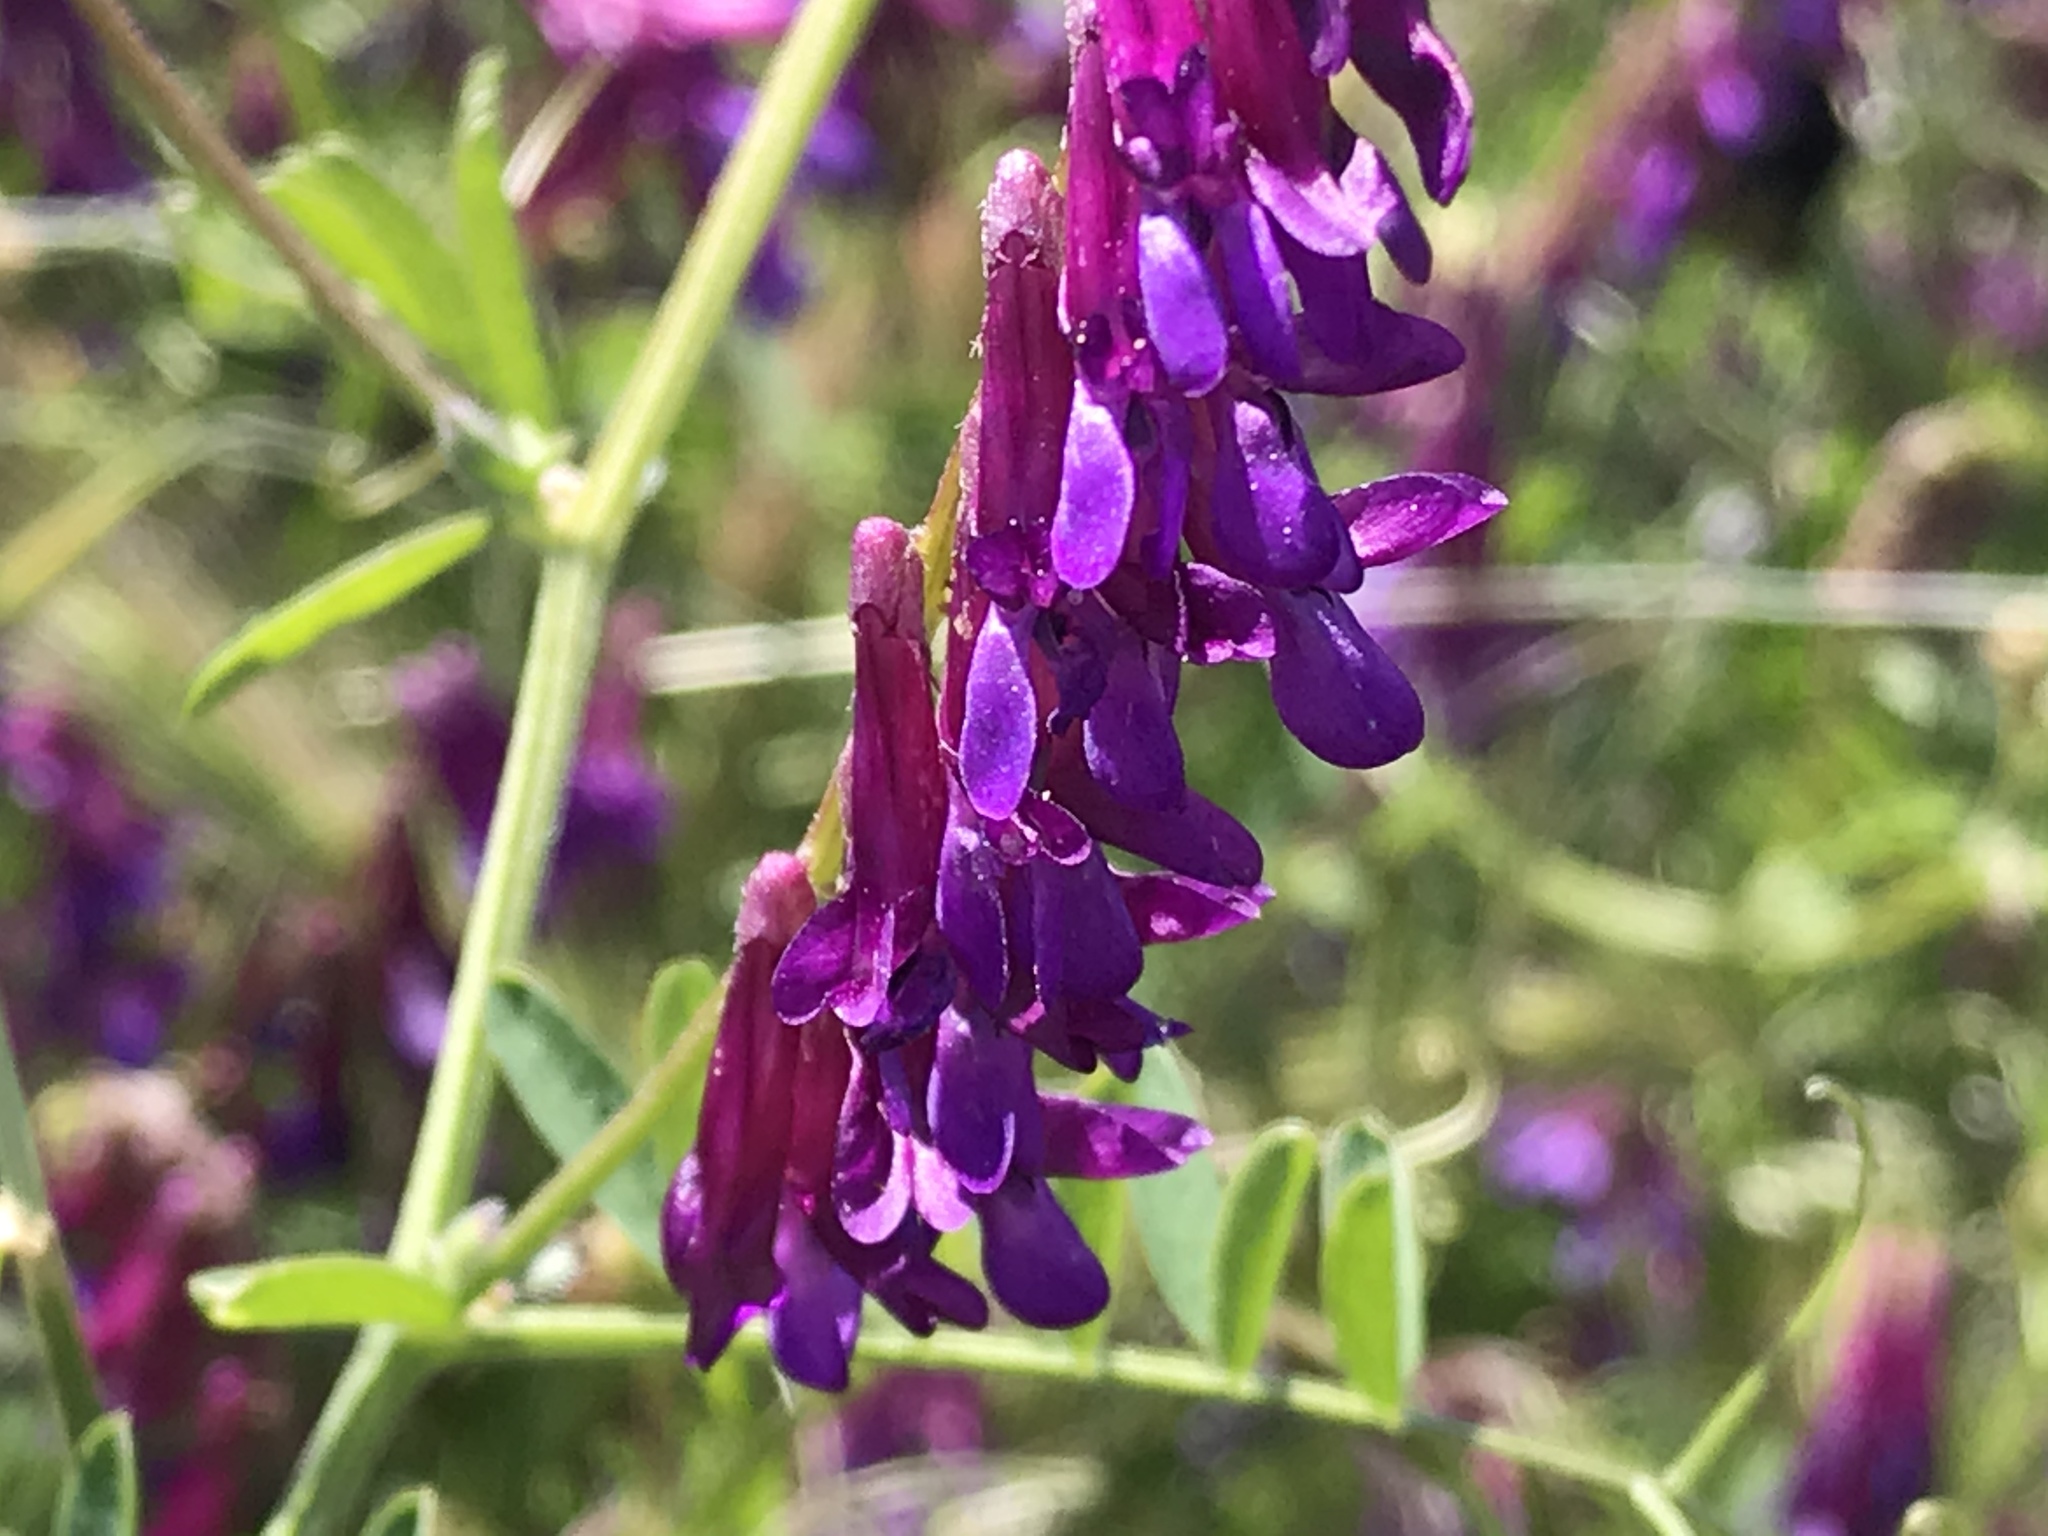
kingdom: Plantae
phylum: Tracheophyta
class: Magnoliopsida
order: Fabales
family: Fabaceae
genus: Vicia
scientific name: Vicia villosa
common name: Fodder vetch
